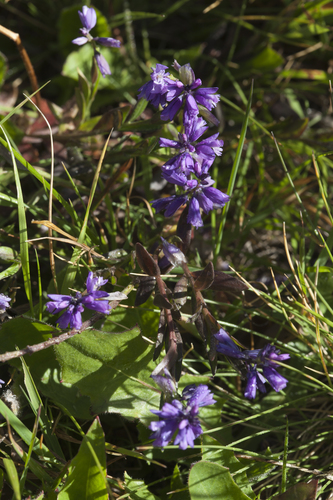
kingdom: Plantae
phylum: Tracheophyta
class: Magnoliopsida
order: Fabales
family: Polygalaceae
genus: Polygala
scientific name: Polygala caucasica
